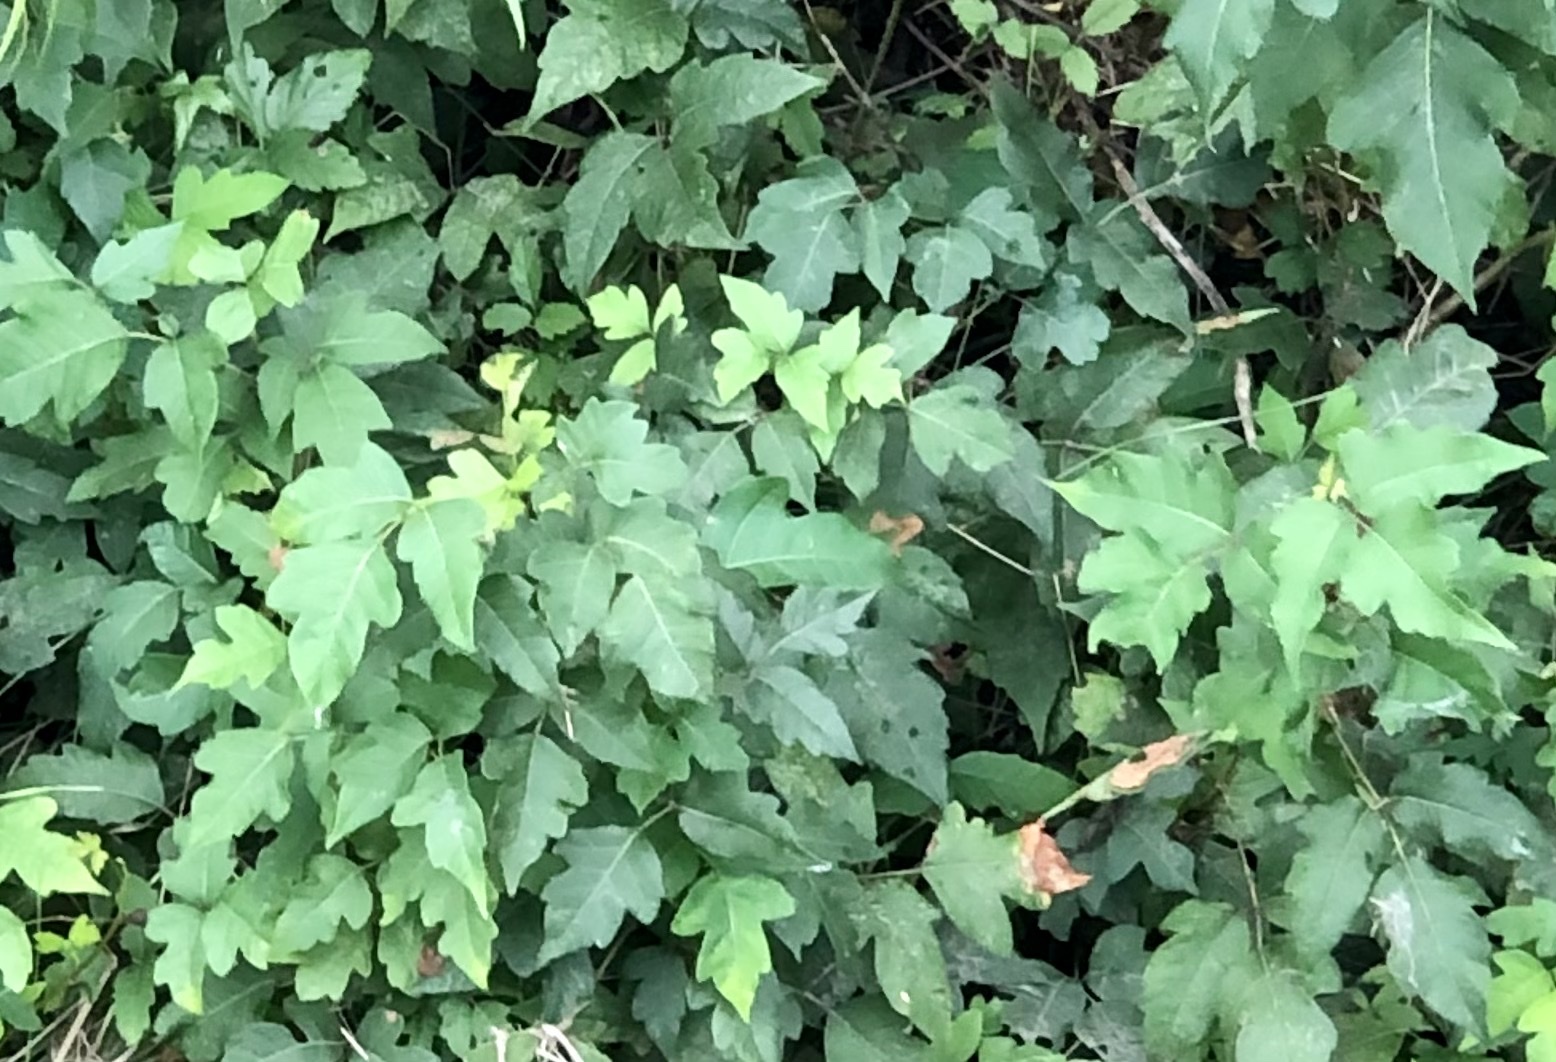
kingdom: Plantae
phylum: Tracheophyta
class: Magnoliopsida
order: Sapindales
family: Anacardiaceae
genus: Toxicodendron
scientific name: Toxicodendron radicans
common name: Poison ivy
